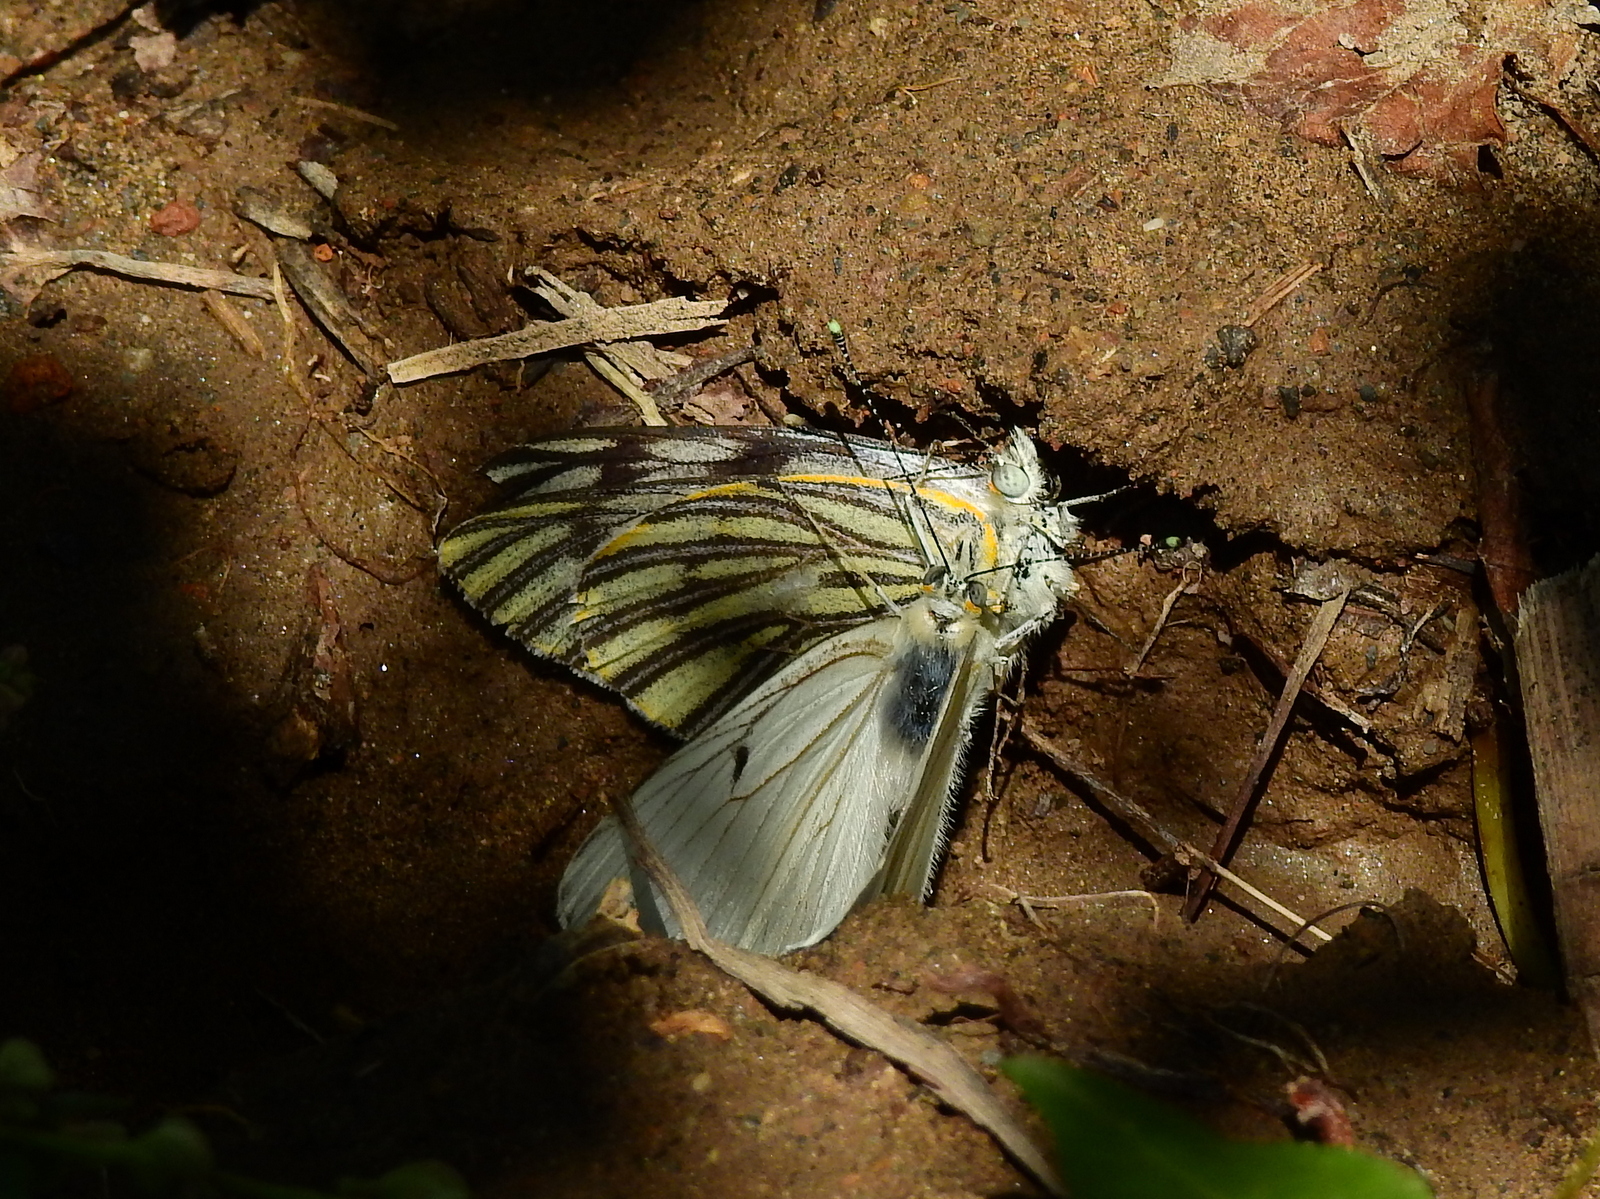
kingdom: Animalia
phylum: Arthropoda
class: Insecta
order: Lepidoptera
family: Pieridae
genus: Tatochila
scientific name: Tatochila mercedis
